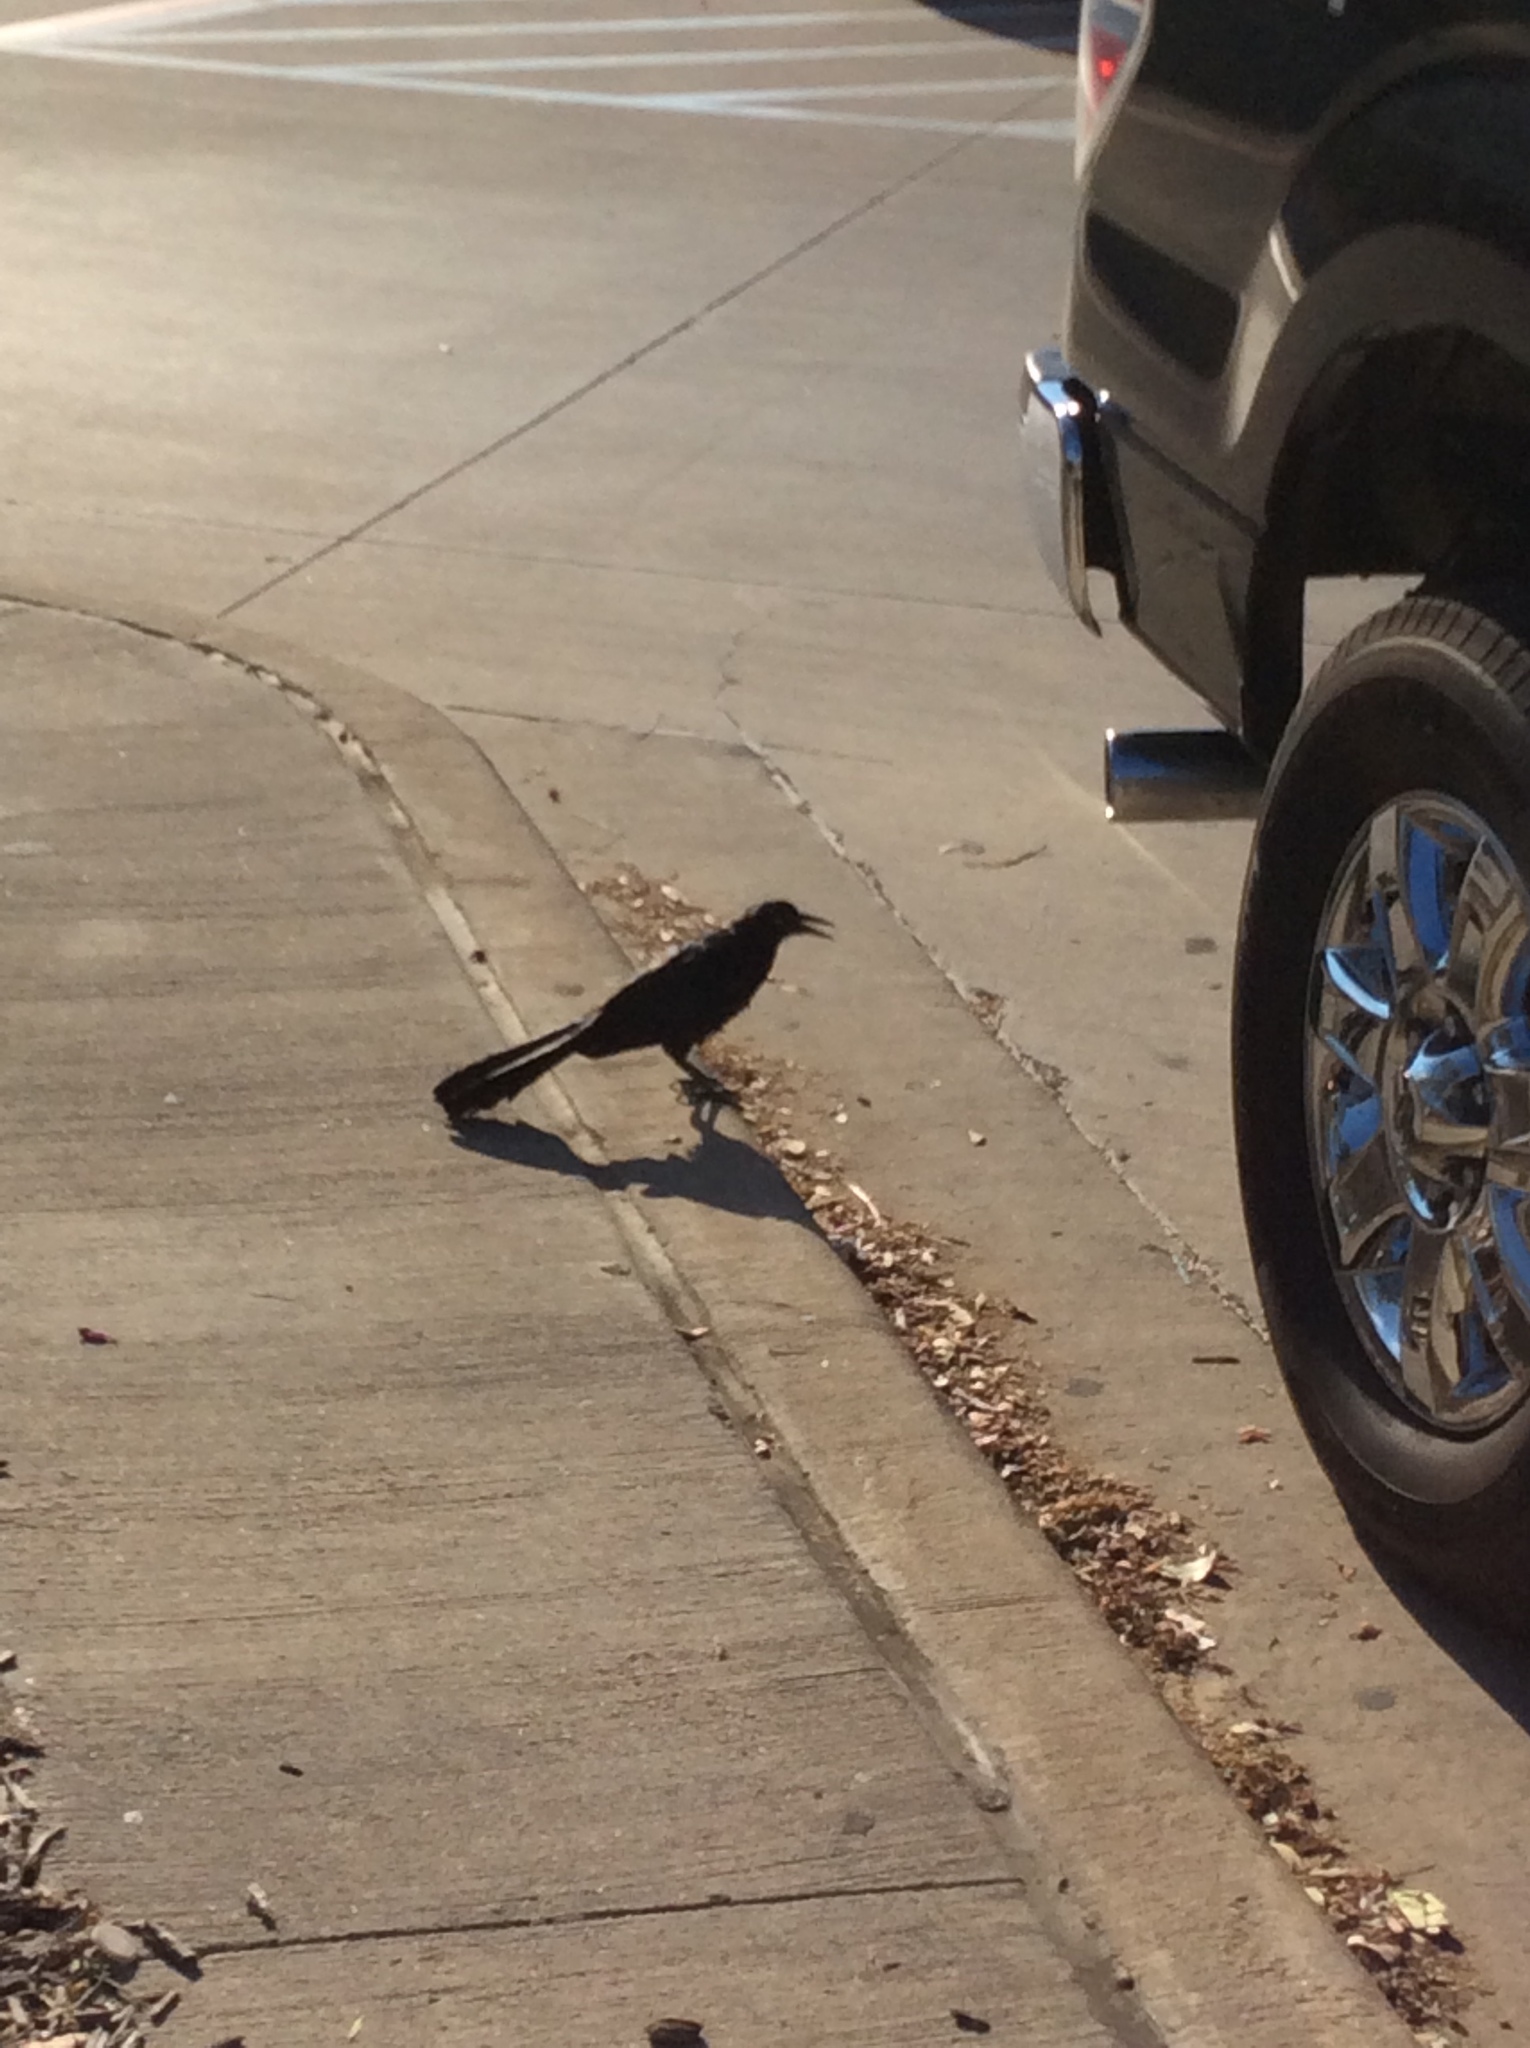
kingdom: Animalia
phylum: Chordata
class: Aves
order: Passeriformes
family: Icteridae
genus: Quiscalus
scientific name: Quiscalus mexicanus
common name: Great-tailed grackle
